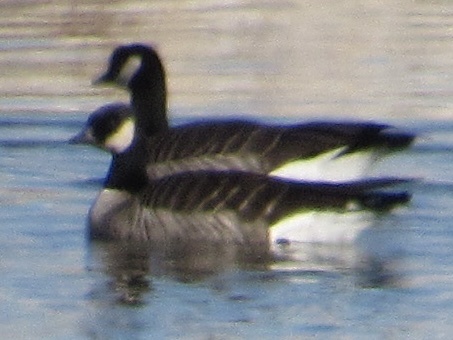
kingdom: Animalia
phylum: Chordata
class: Aves
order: Anseriformes
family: Anatidae
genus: Branta
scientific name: Branta hutchinsii
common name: Cackling goose
